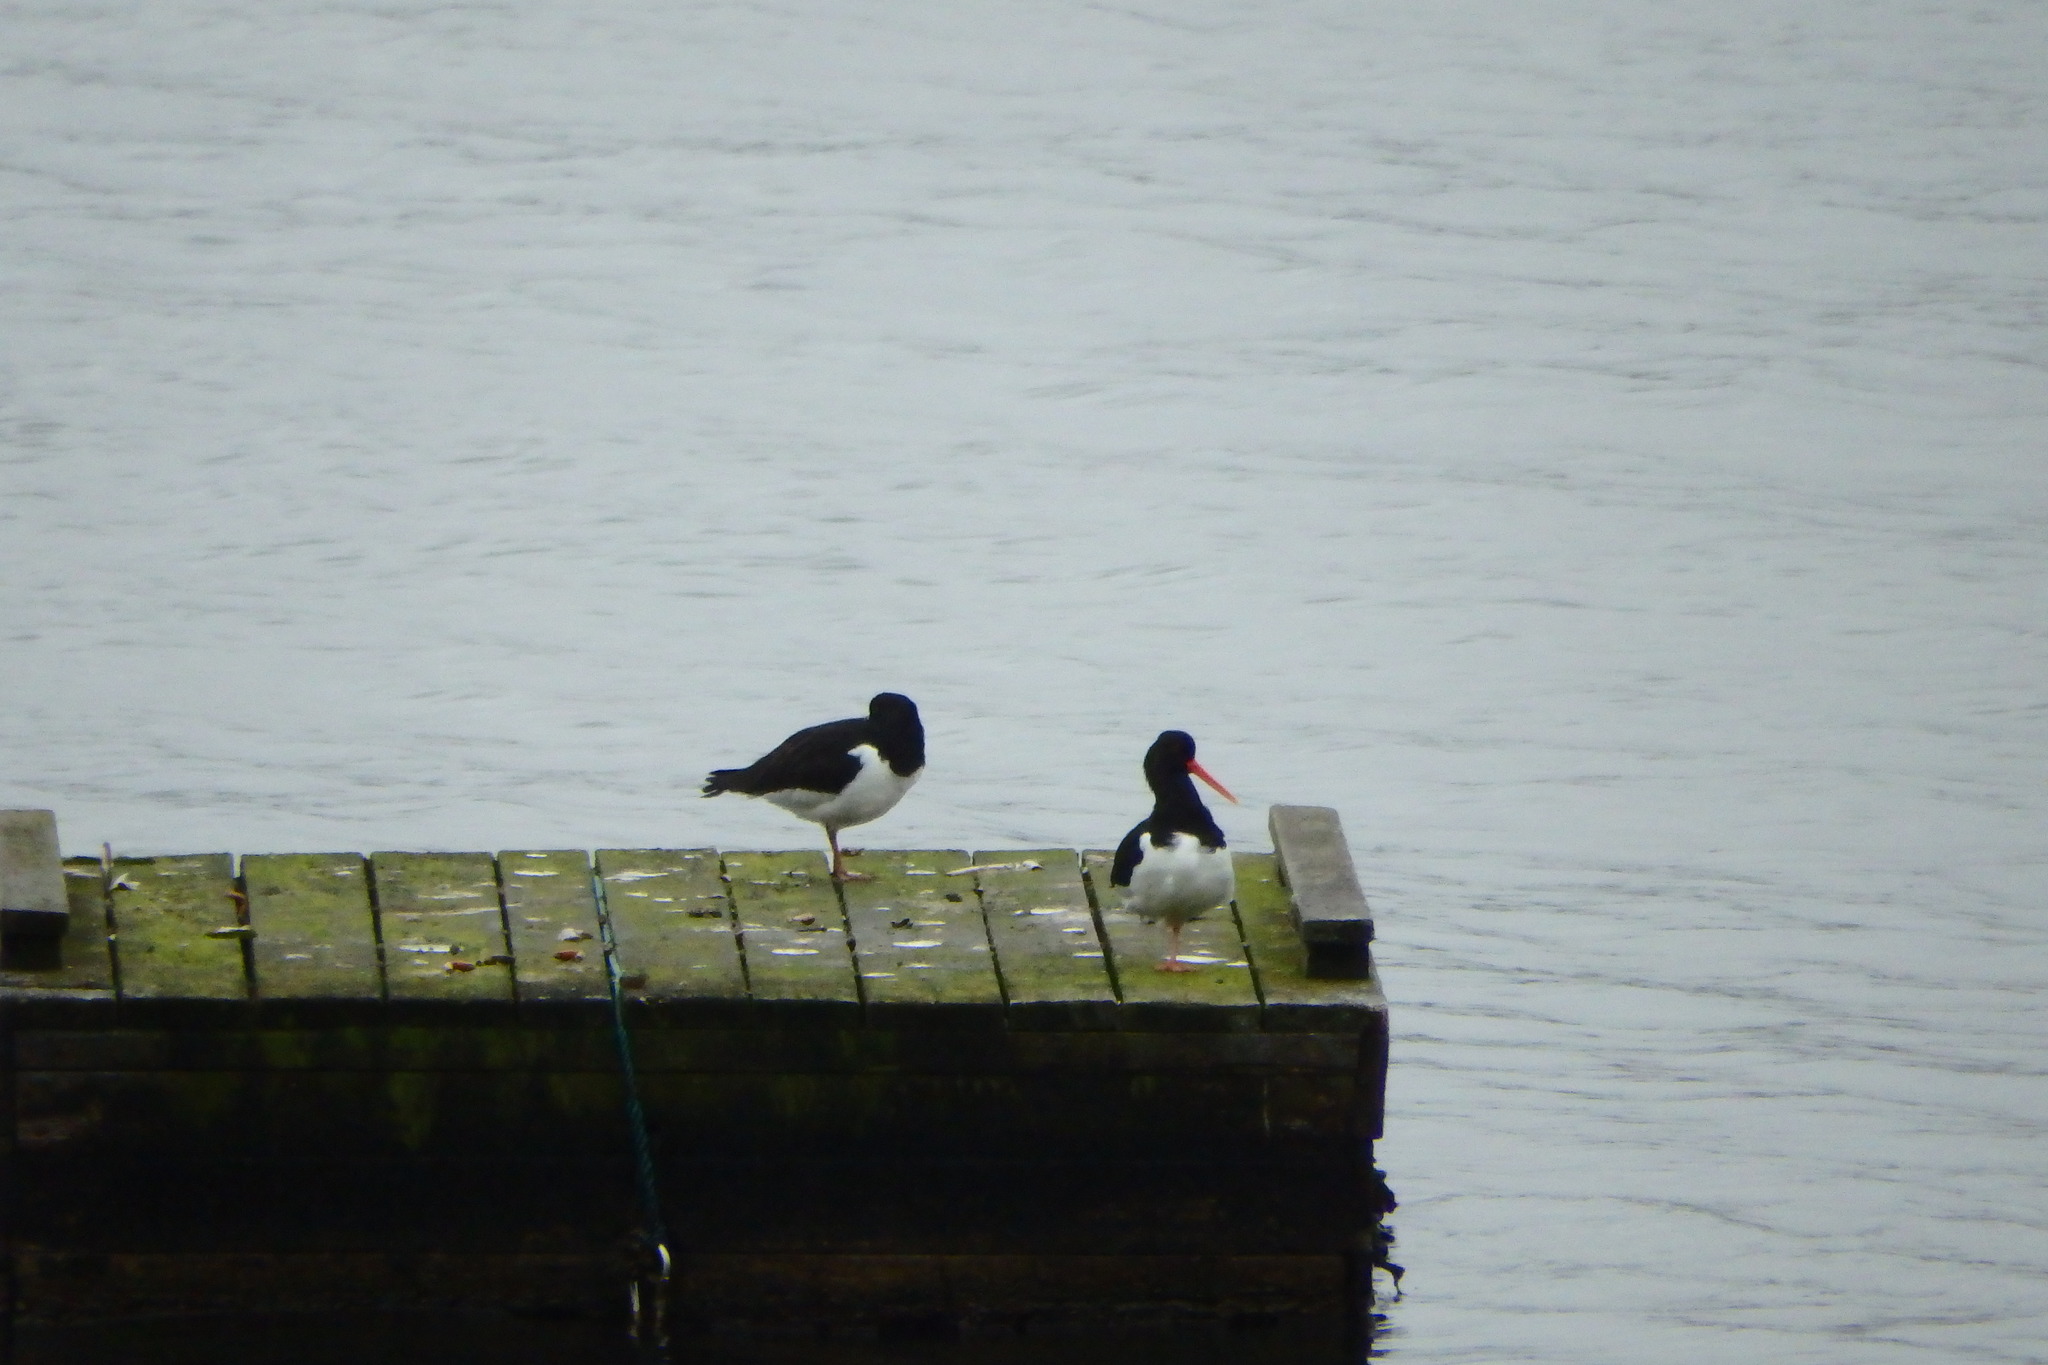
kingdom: Animalia
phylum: Chordata
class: Aves
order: Charadriiformes
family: Haematopodidae
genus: Haematopus
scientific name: Haematopus ostralegus
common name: Eurasian oystercatcher
